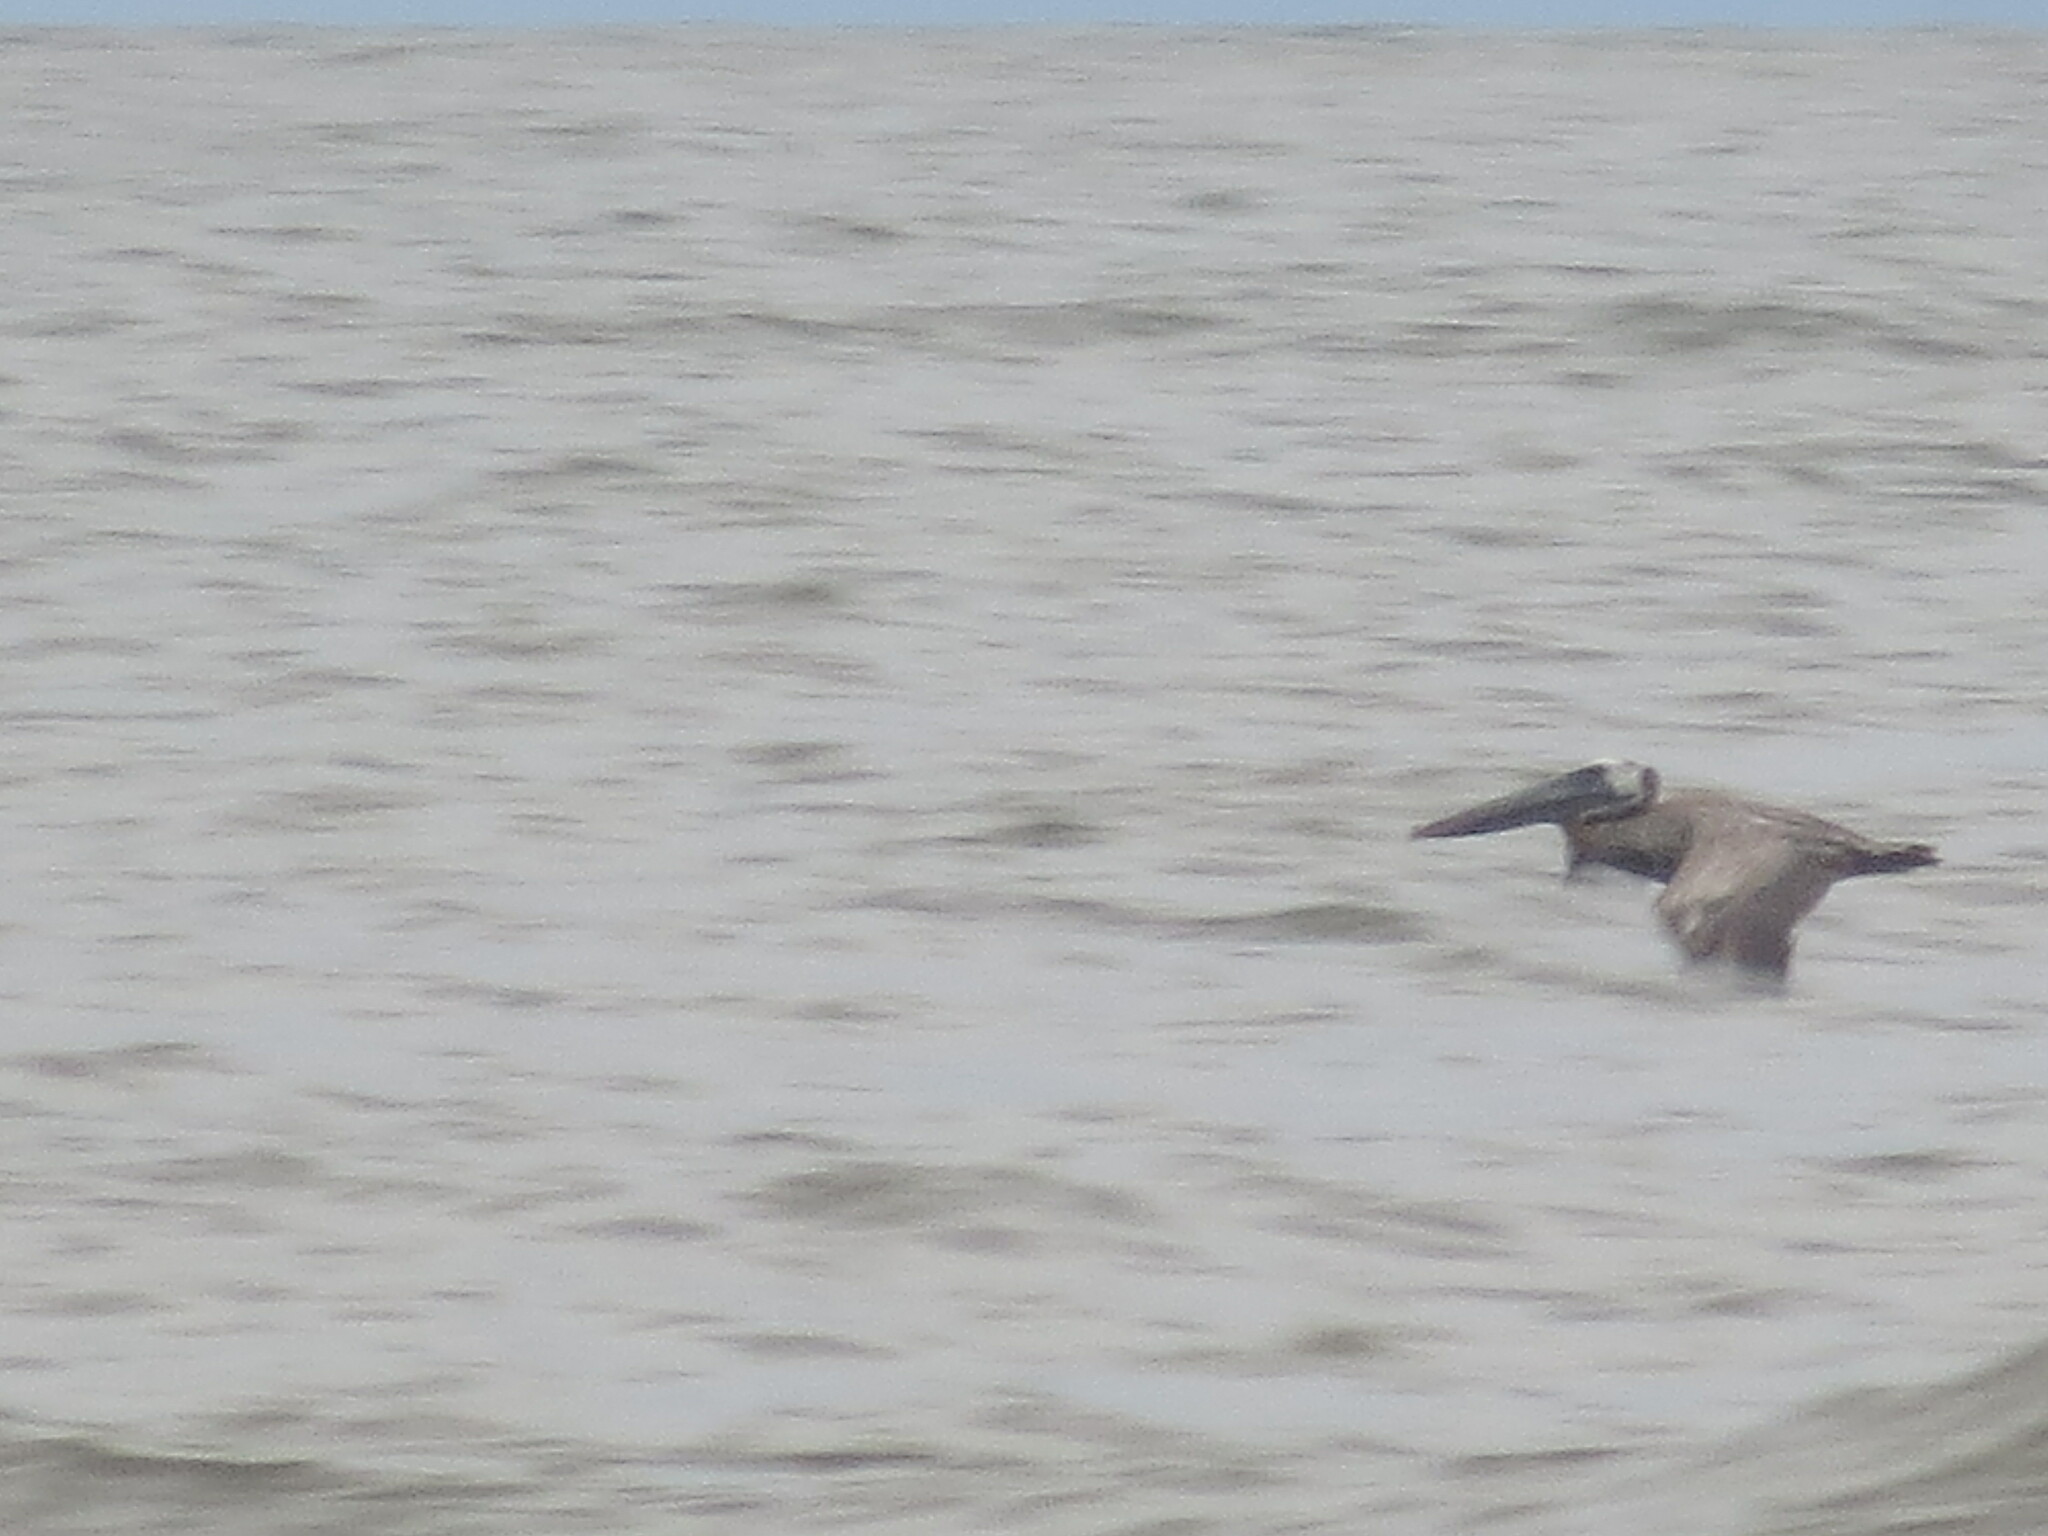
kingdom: Animalia
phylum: Chordata
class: Aves
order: Pelecaniformes
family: Pelecanidae
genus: Pelecanus
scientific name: Pelecanus occidentalis
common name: Brown pelican
